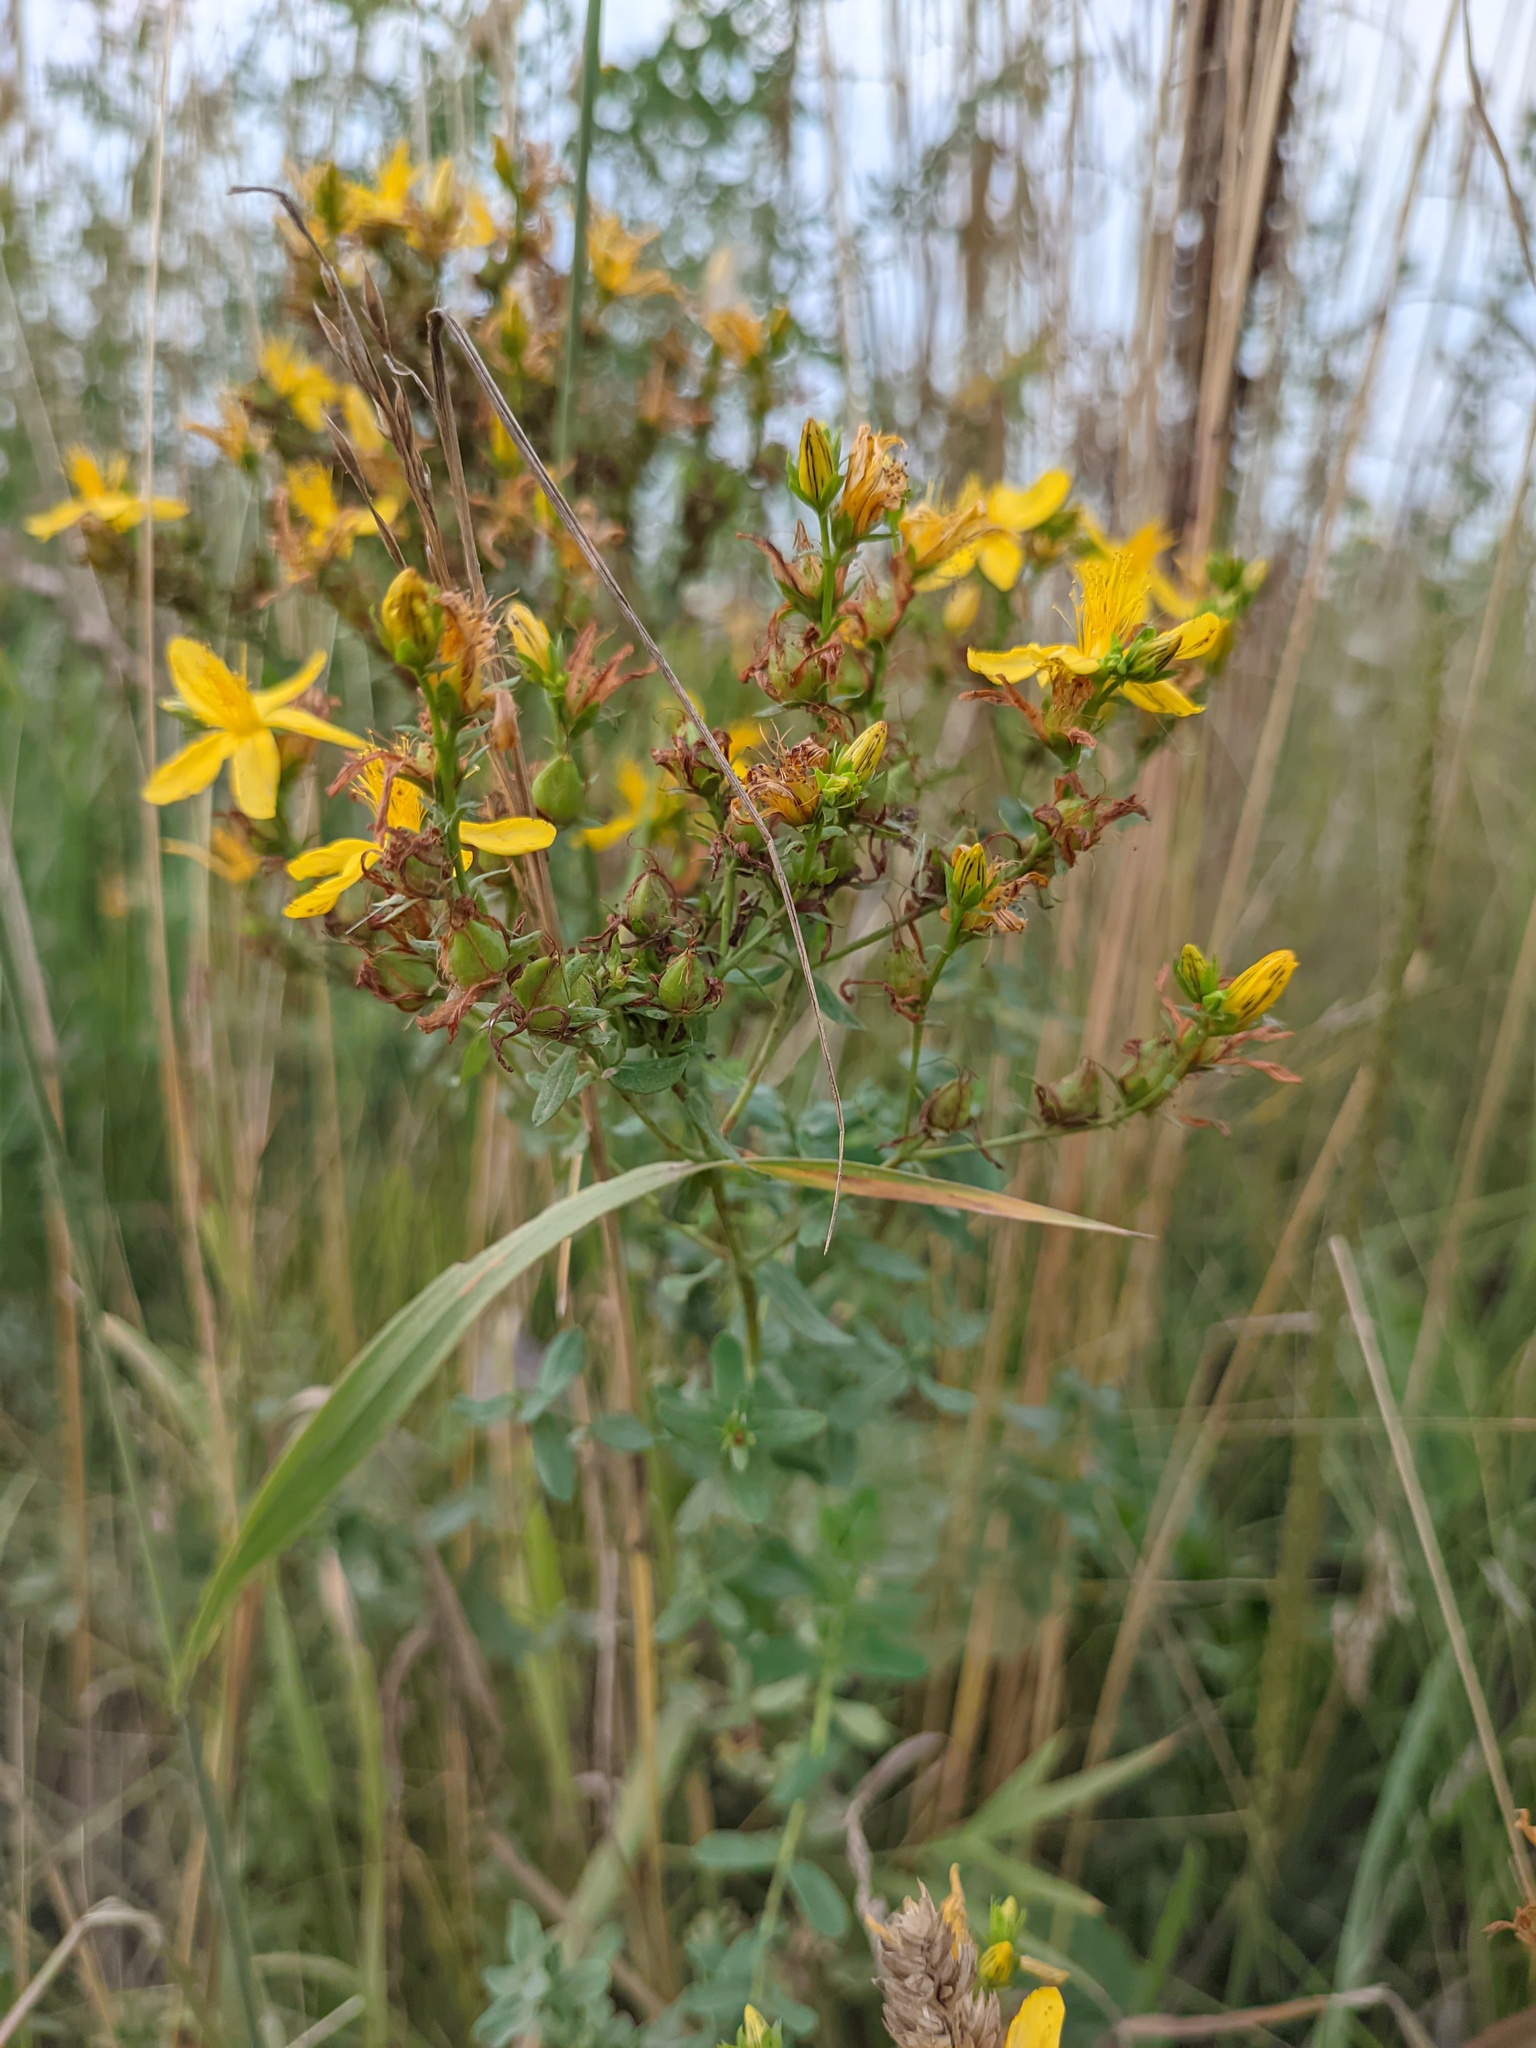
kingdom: Plantae
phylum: Tracheophyta
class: Magnoliopsida
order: Malpighiales
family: Hypericaceae
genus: Hypericum
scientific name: Hypericum perforatum
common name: Common st. johnswort
